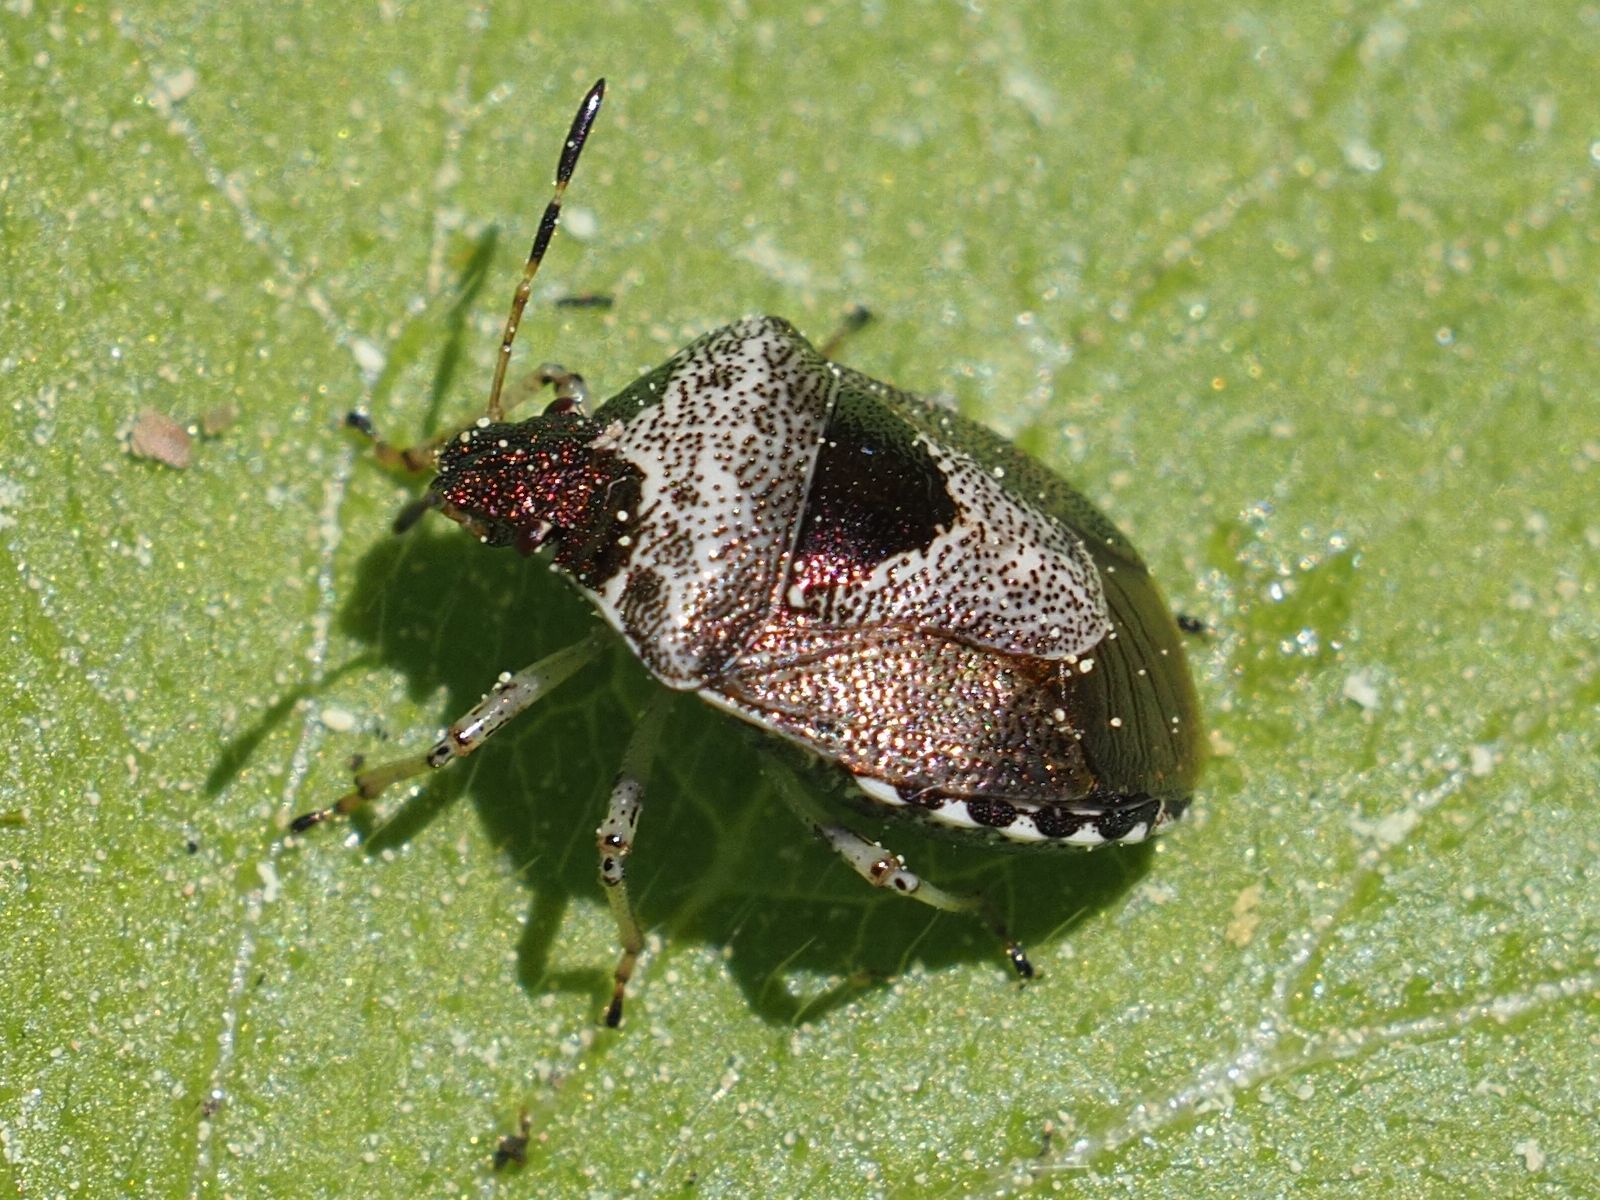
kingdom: Animalia
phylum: Arthropoda
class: Insecta
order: Hemiptera
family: Pentatomidae
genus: Eysarcoris
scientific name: Eysarcoris venustissimus
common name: Woundwort shieldbug
